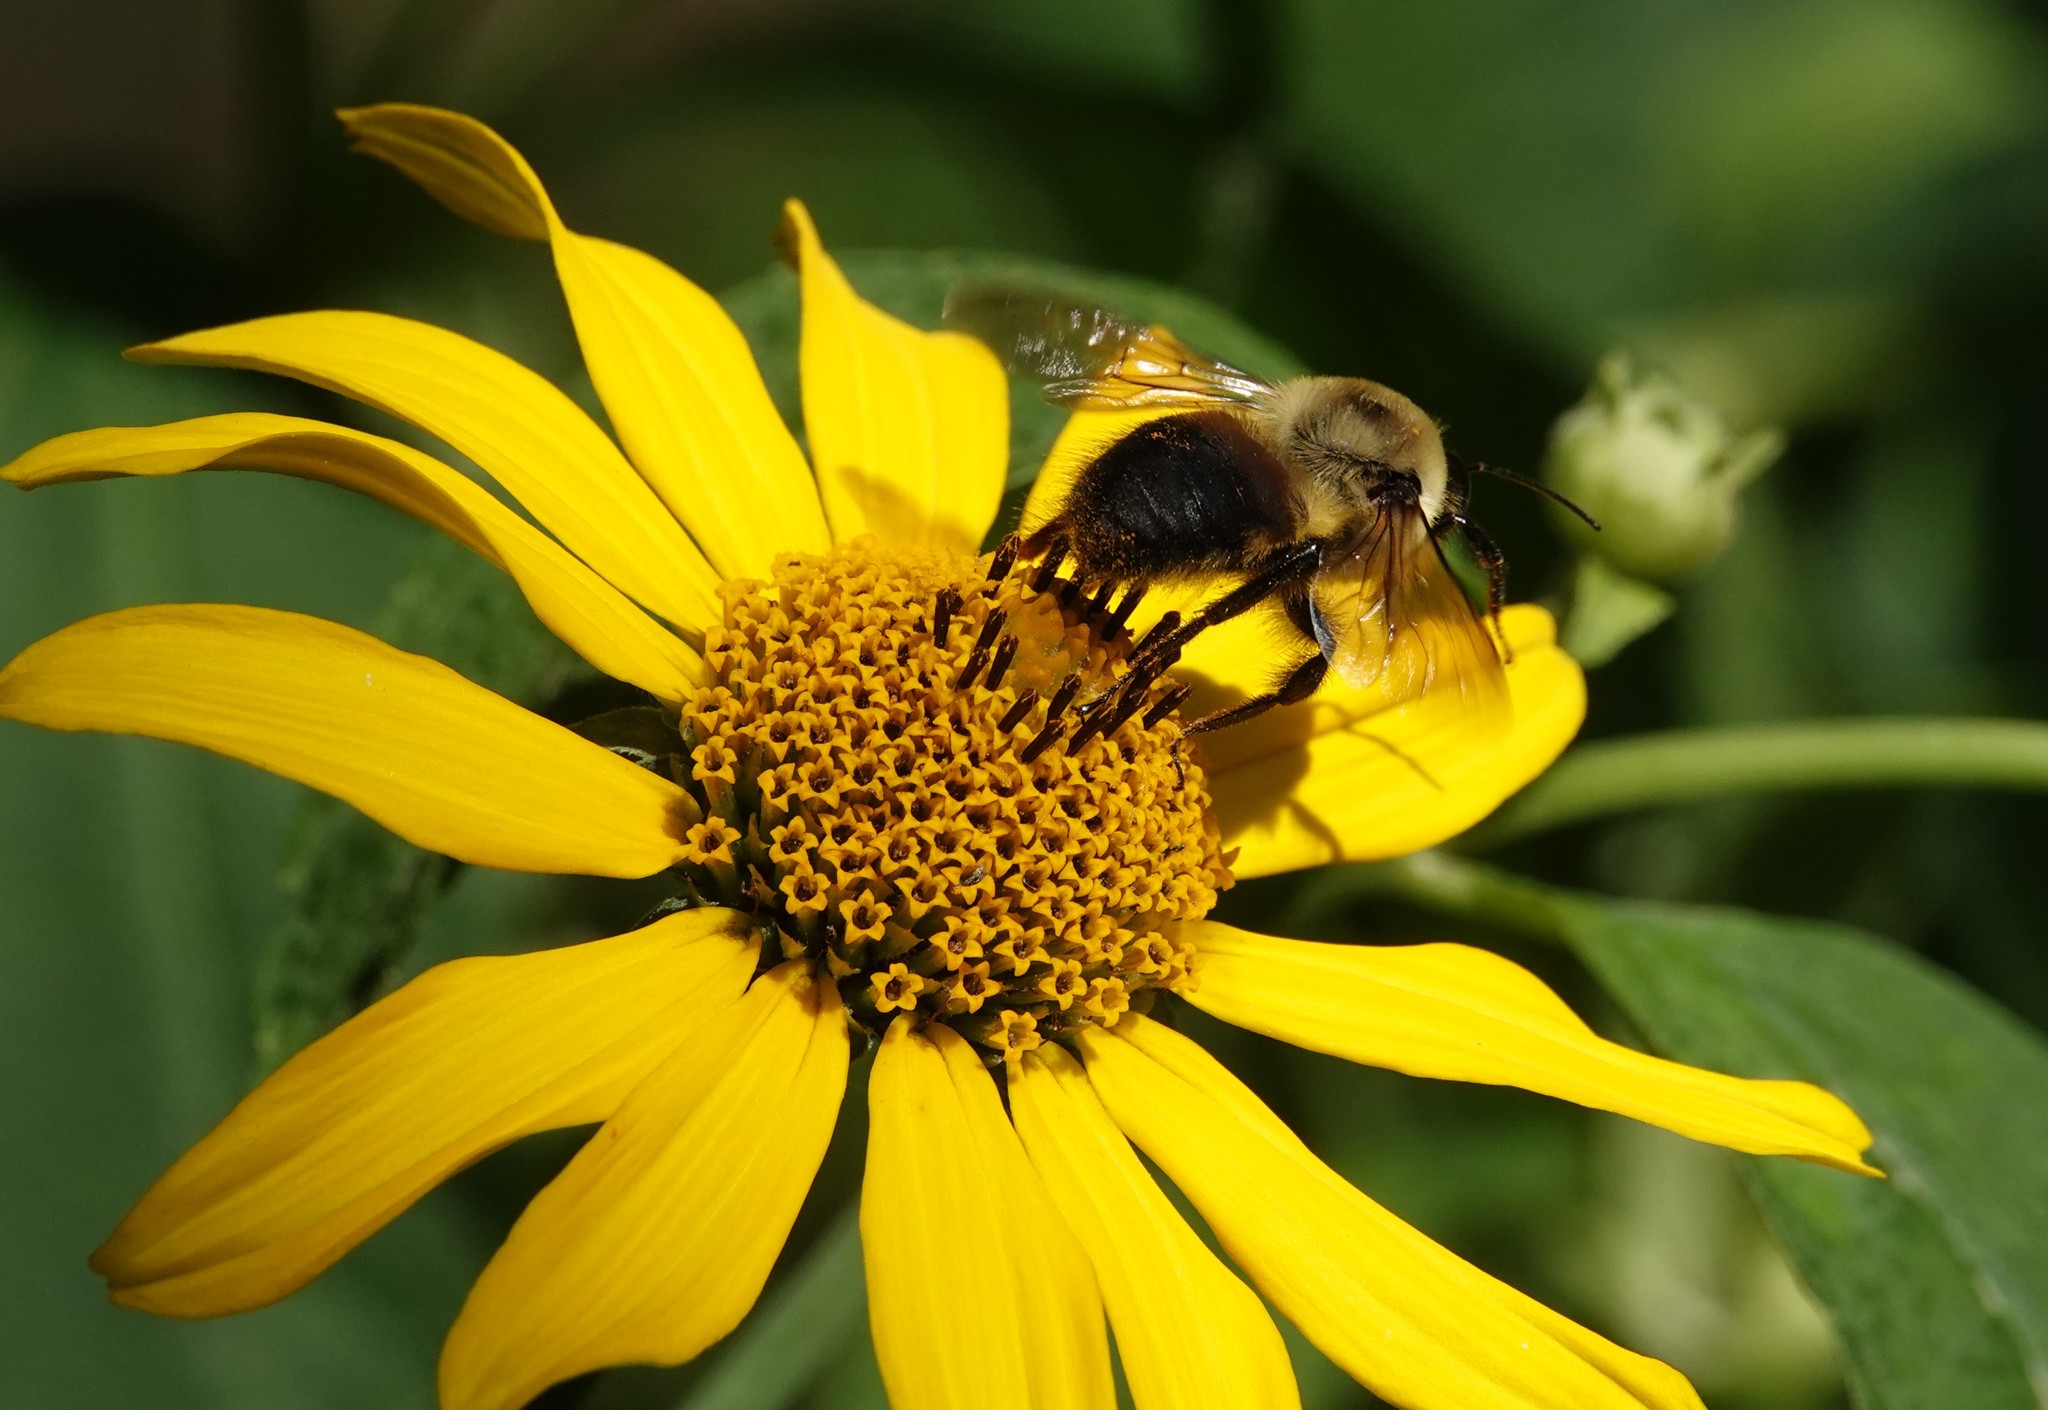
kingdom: Animalia
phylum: Arthropoda
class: Insecta
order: Hymenoptera
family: Apidae
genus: Bombus
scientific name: Bombus griseocollis
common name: Brown-belted bumble bee
